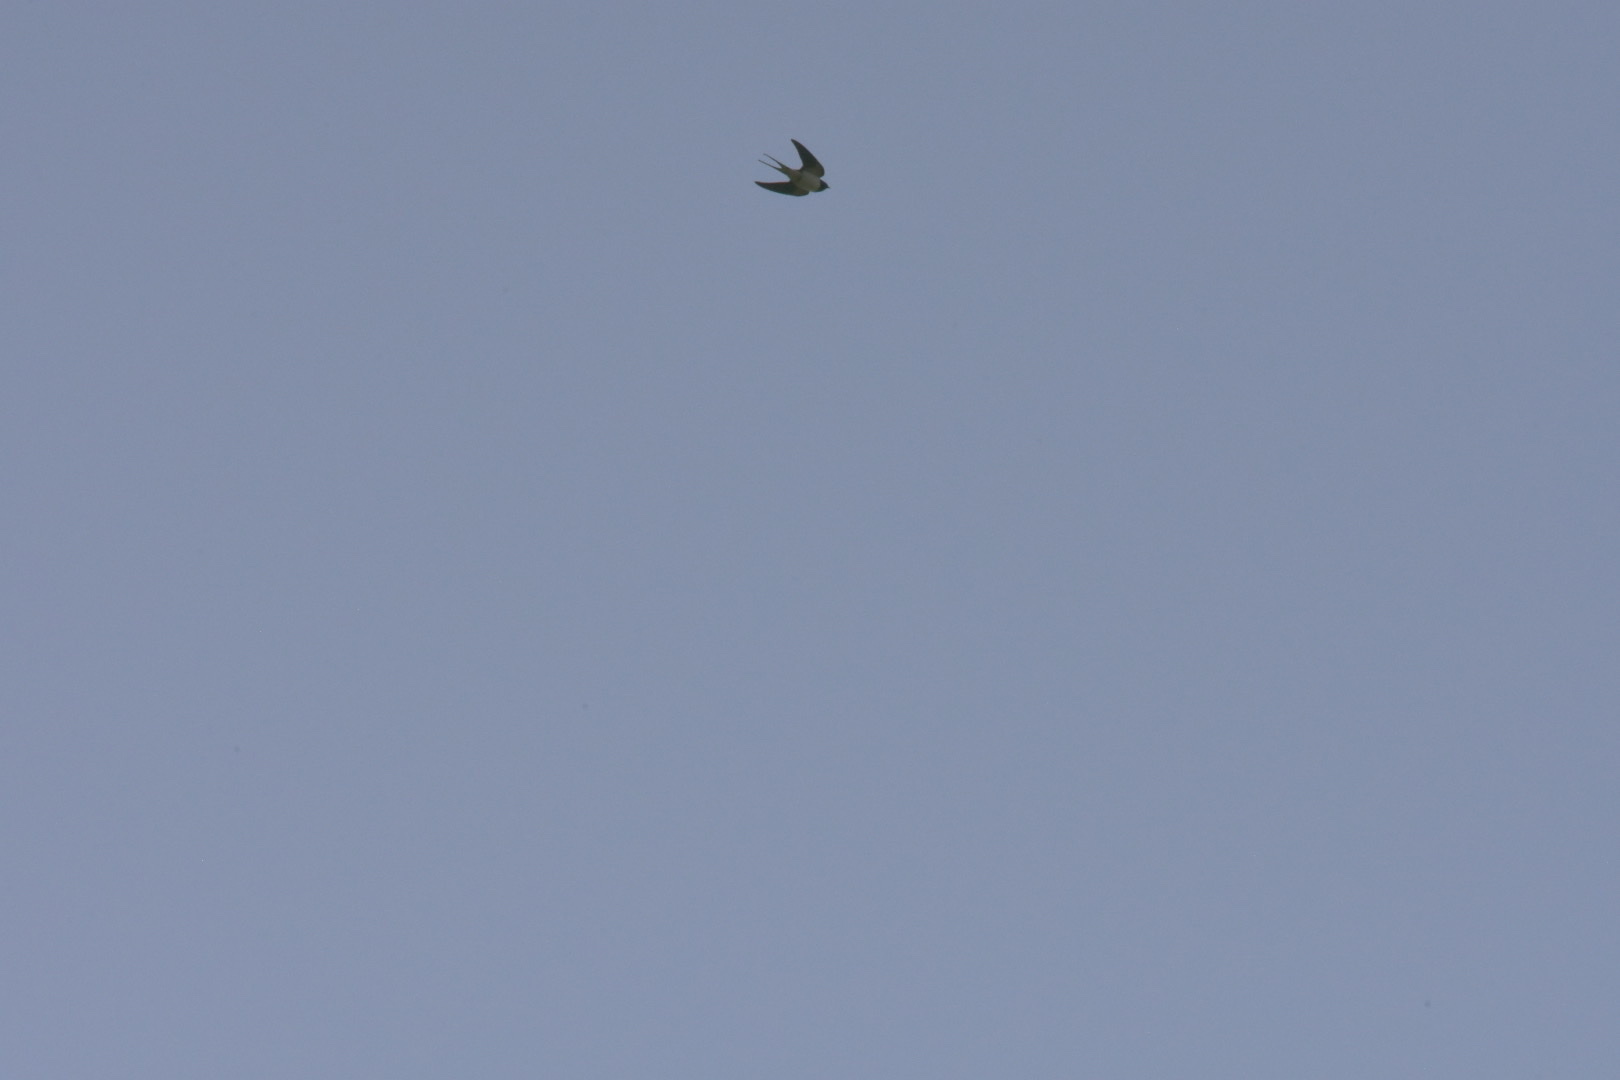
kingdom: Animalia
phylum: Chordata
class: Aves
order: Passeriformes
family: Hirundinidae
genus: Hirundo
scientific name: Hirundo rustica
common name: Barn swallow
